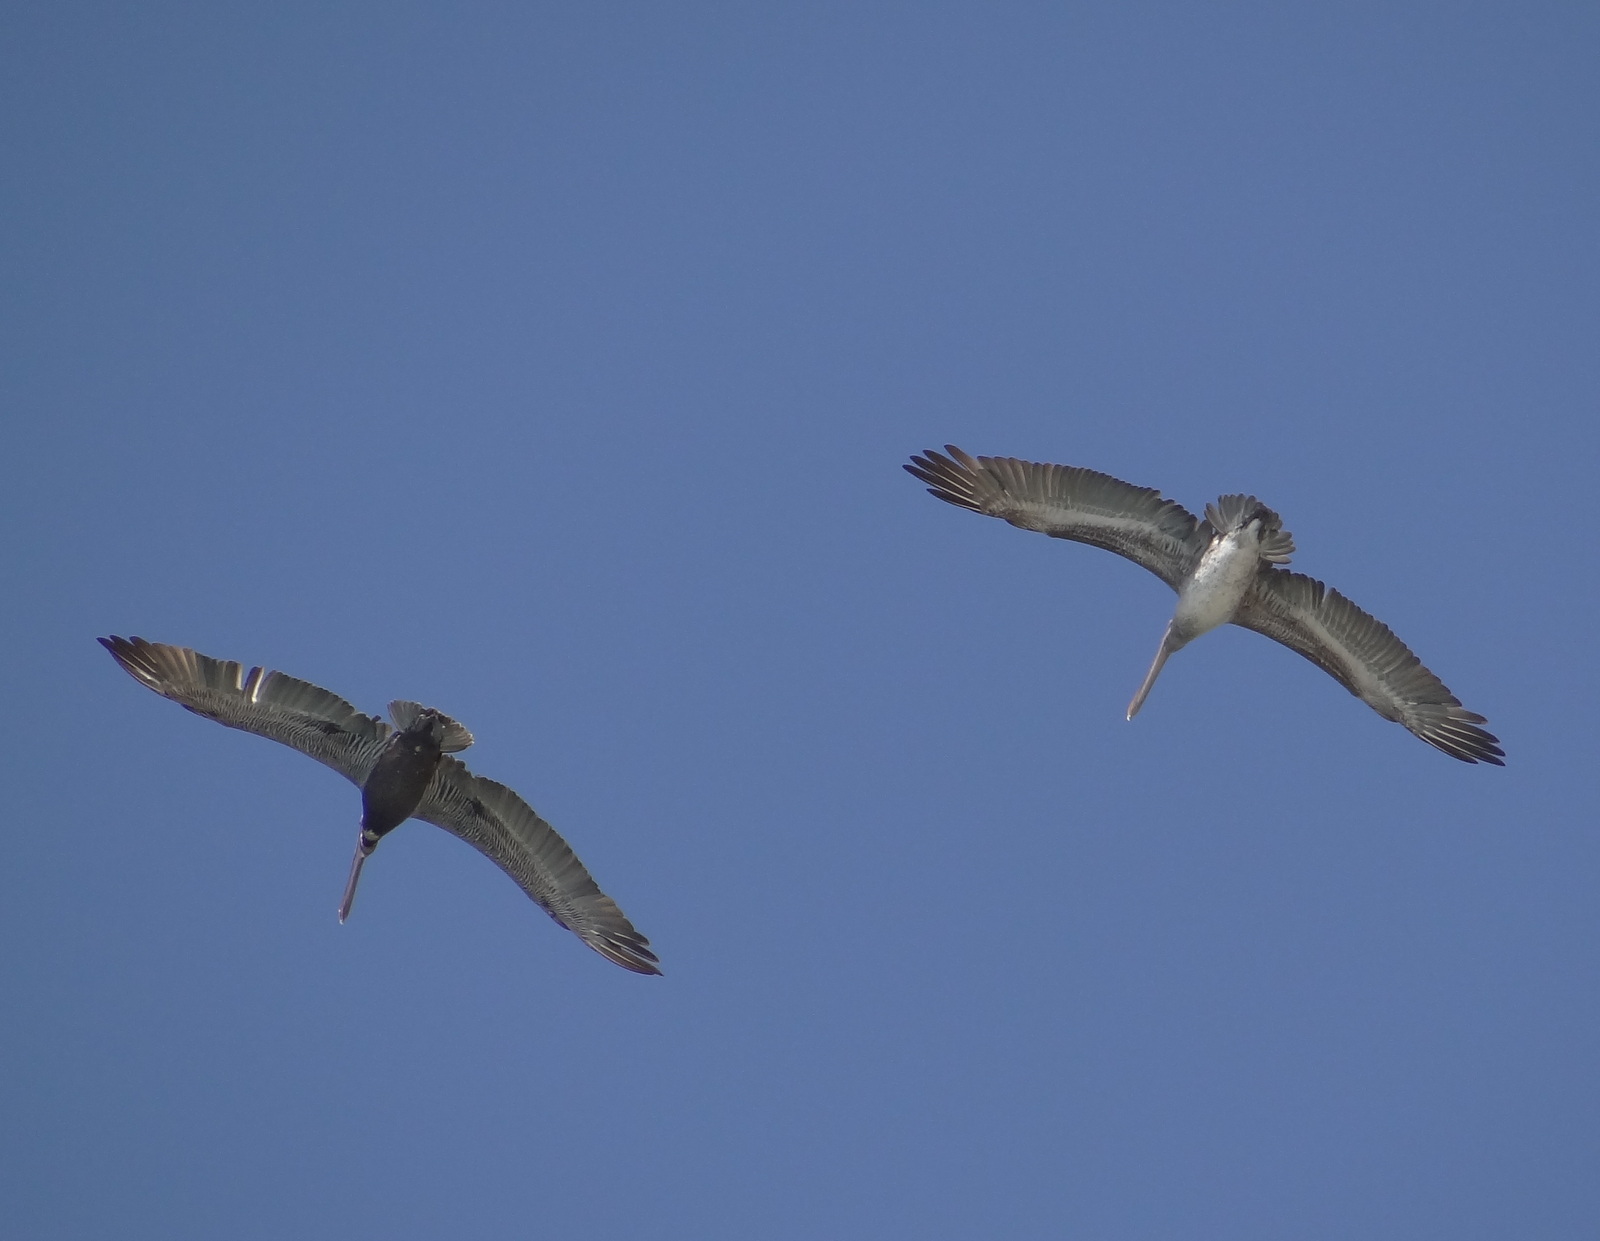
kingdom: Animalia
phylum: Chordata
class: Aves
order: Pelecaniformes
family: Pelecanidae
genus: Pelecanus
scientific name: Pelecanus occidentalis
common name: Brown pelican
